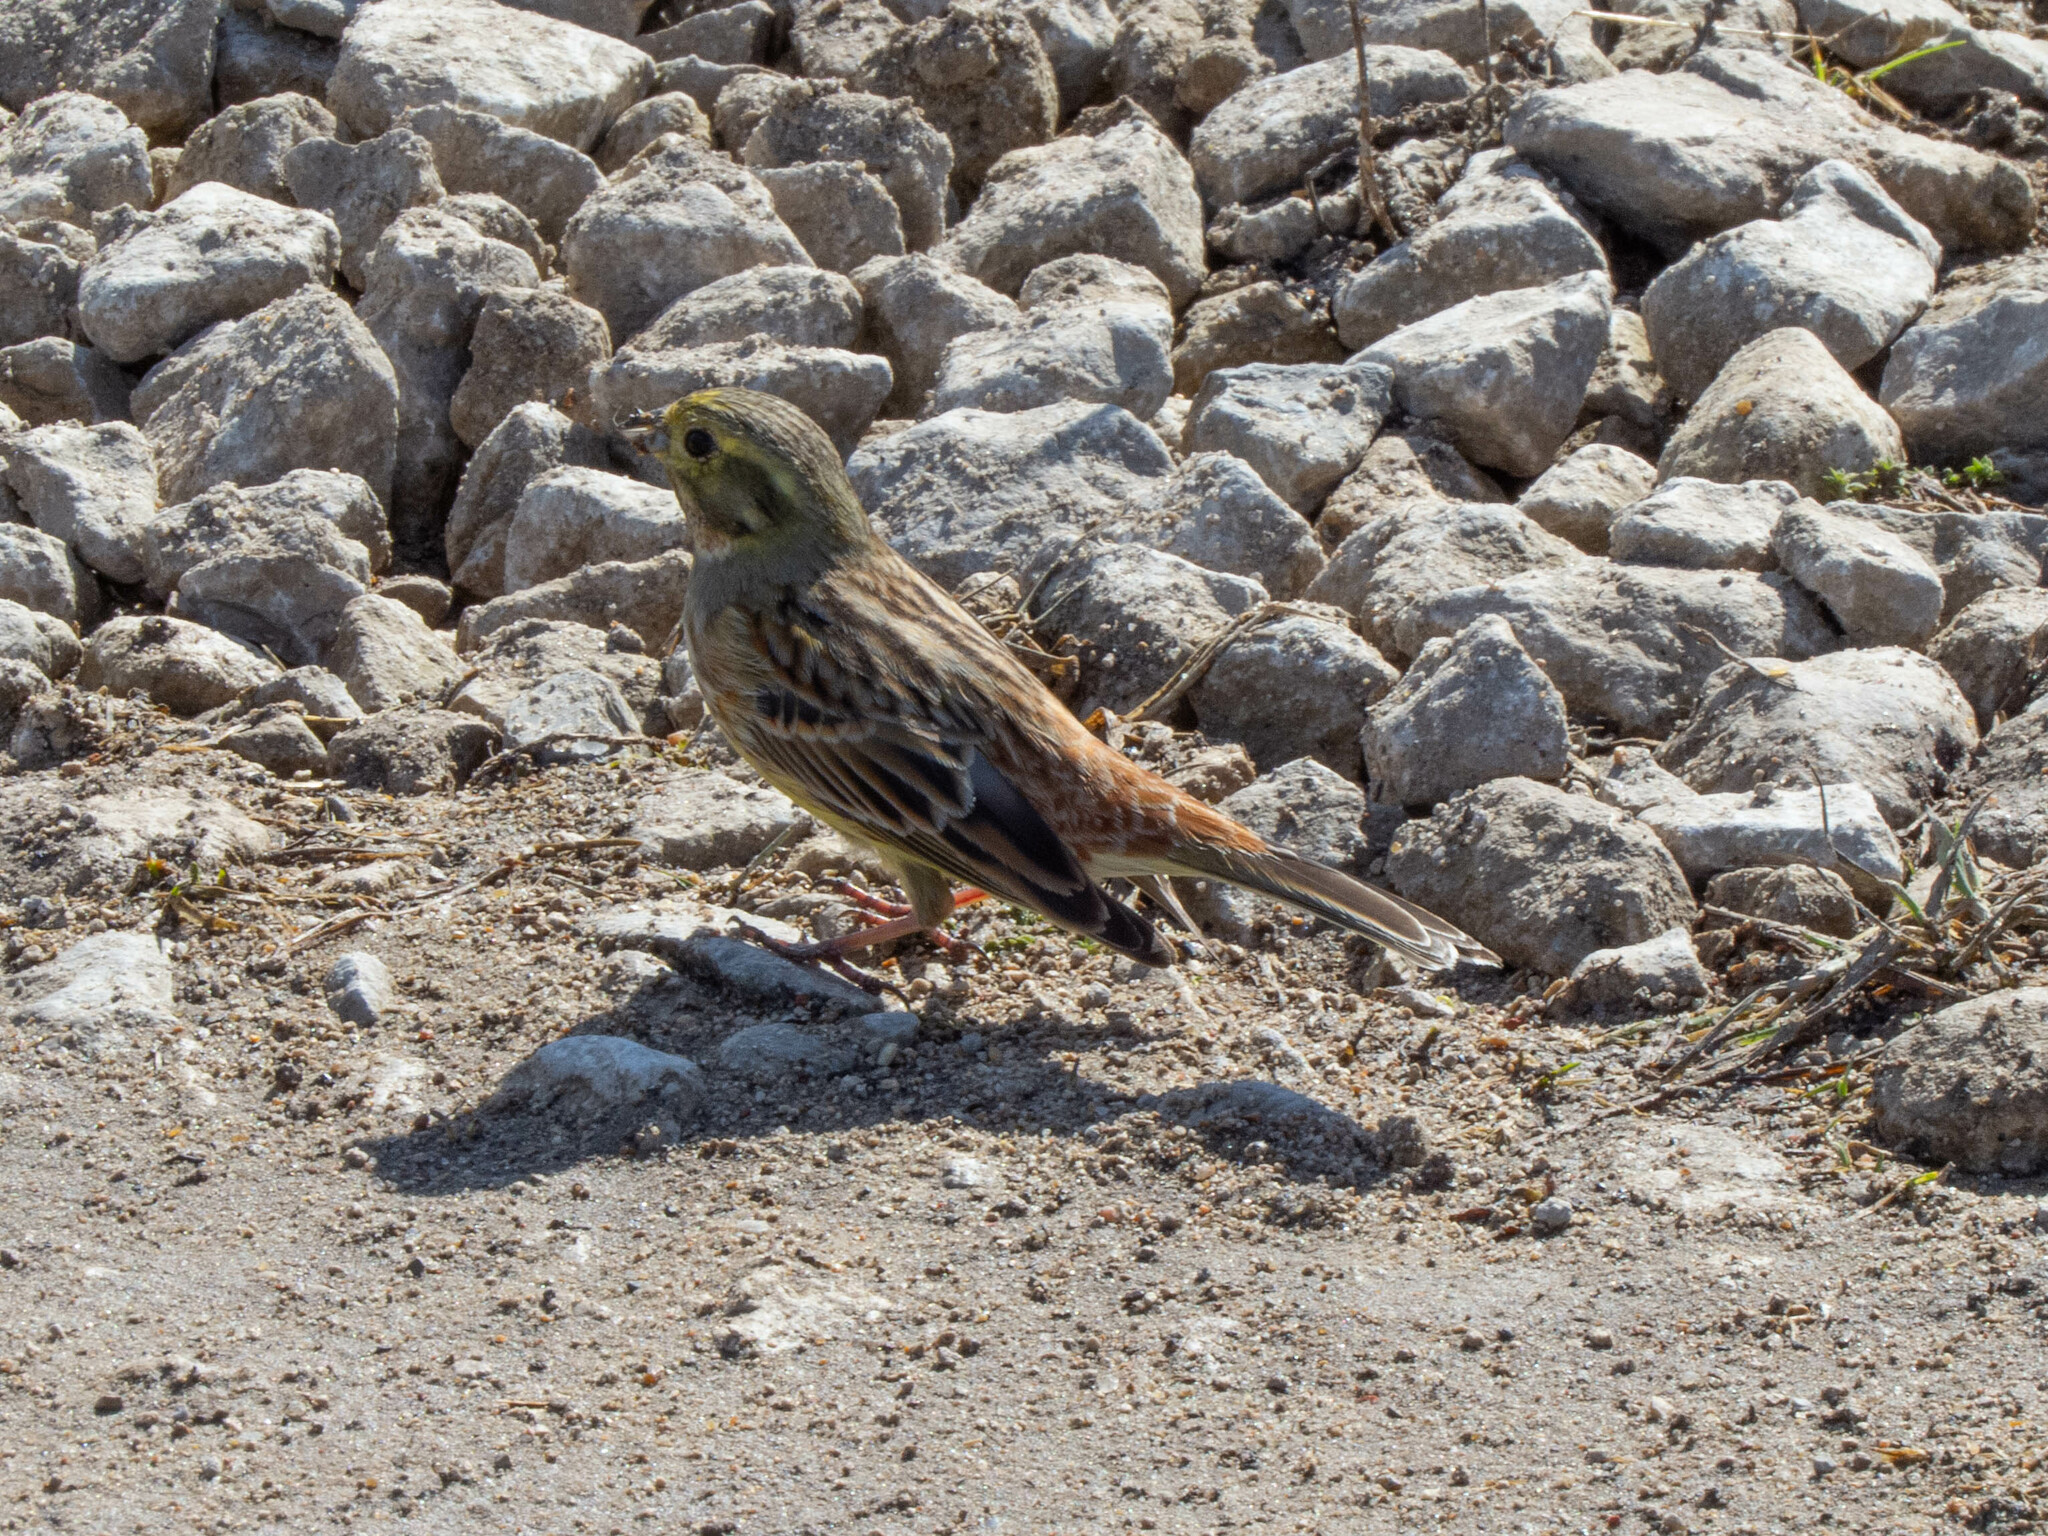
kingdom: Animalia
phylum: Chordata
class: Aves
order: Passeriformes
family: Emberizidae
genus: Emberiza
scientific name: Emberiza citrinella
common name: Yellowhammer
